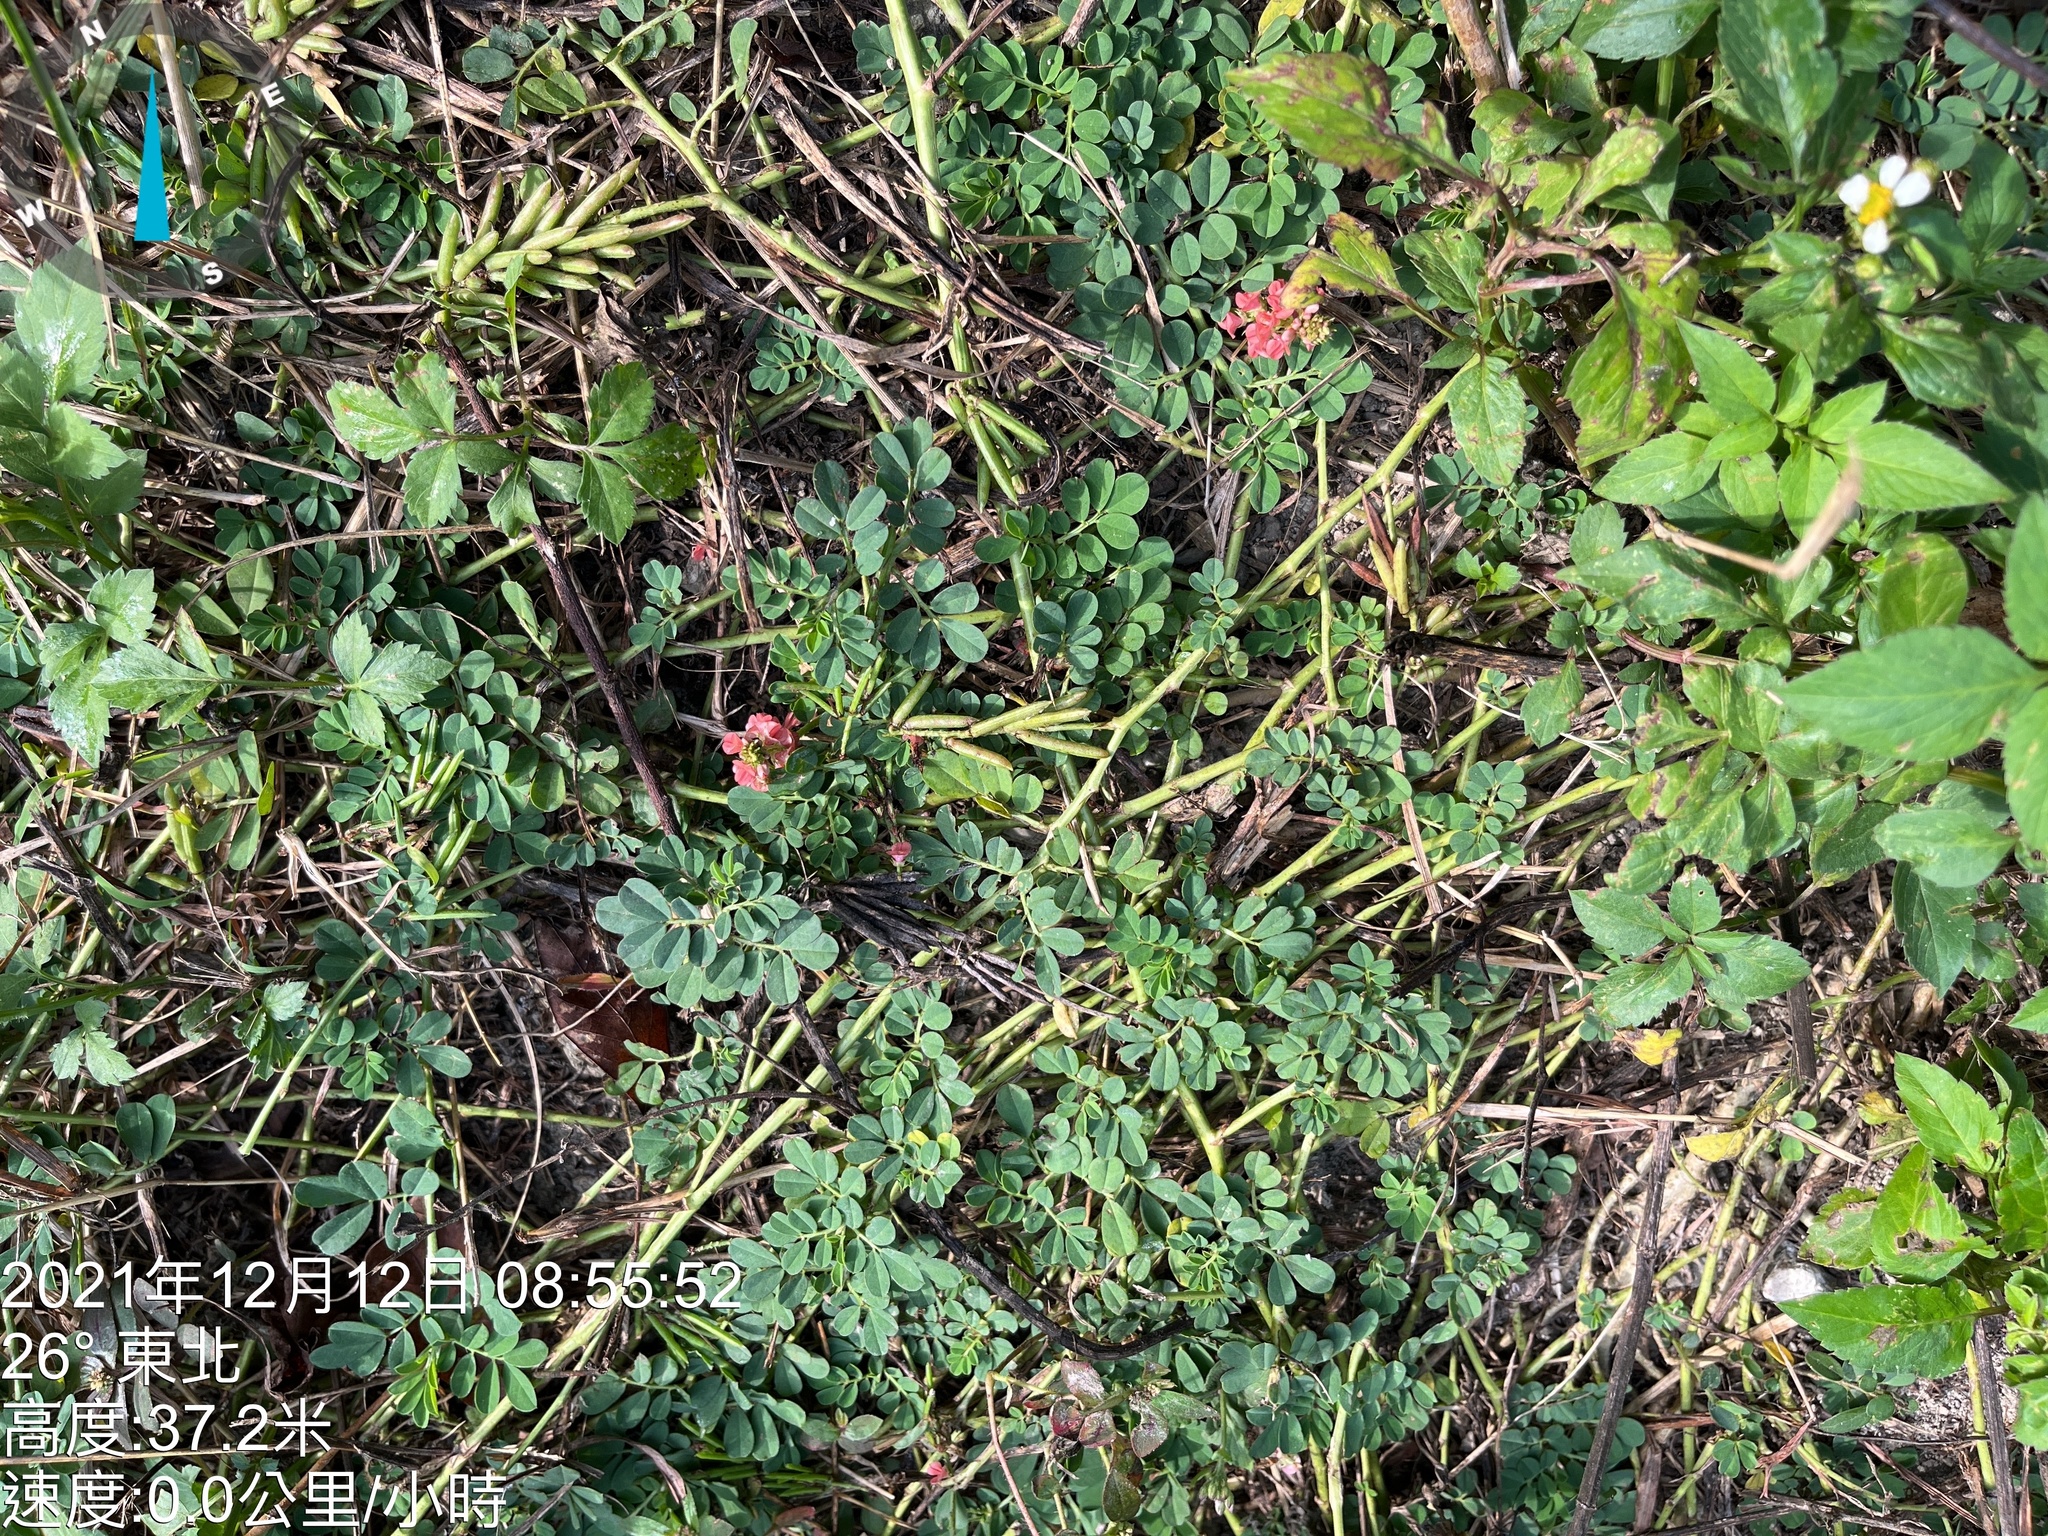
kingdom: Plantae
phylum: Tracheophyta
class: Magnoliopsida
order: Fabales
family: Fabaceae
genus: Indigofera
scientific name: Indigofera spicata
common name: Creeping indigo
